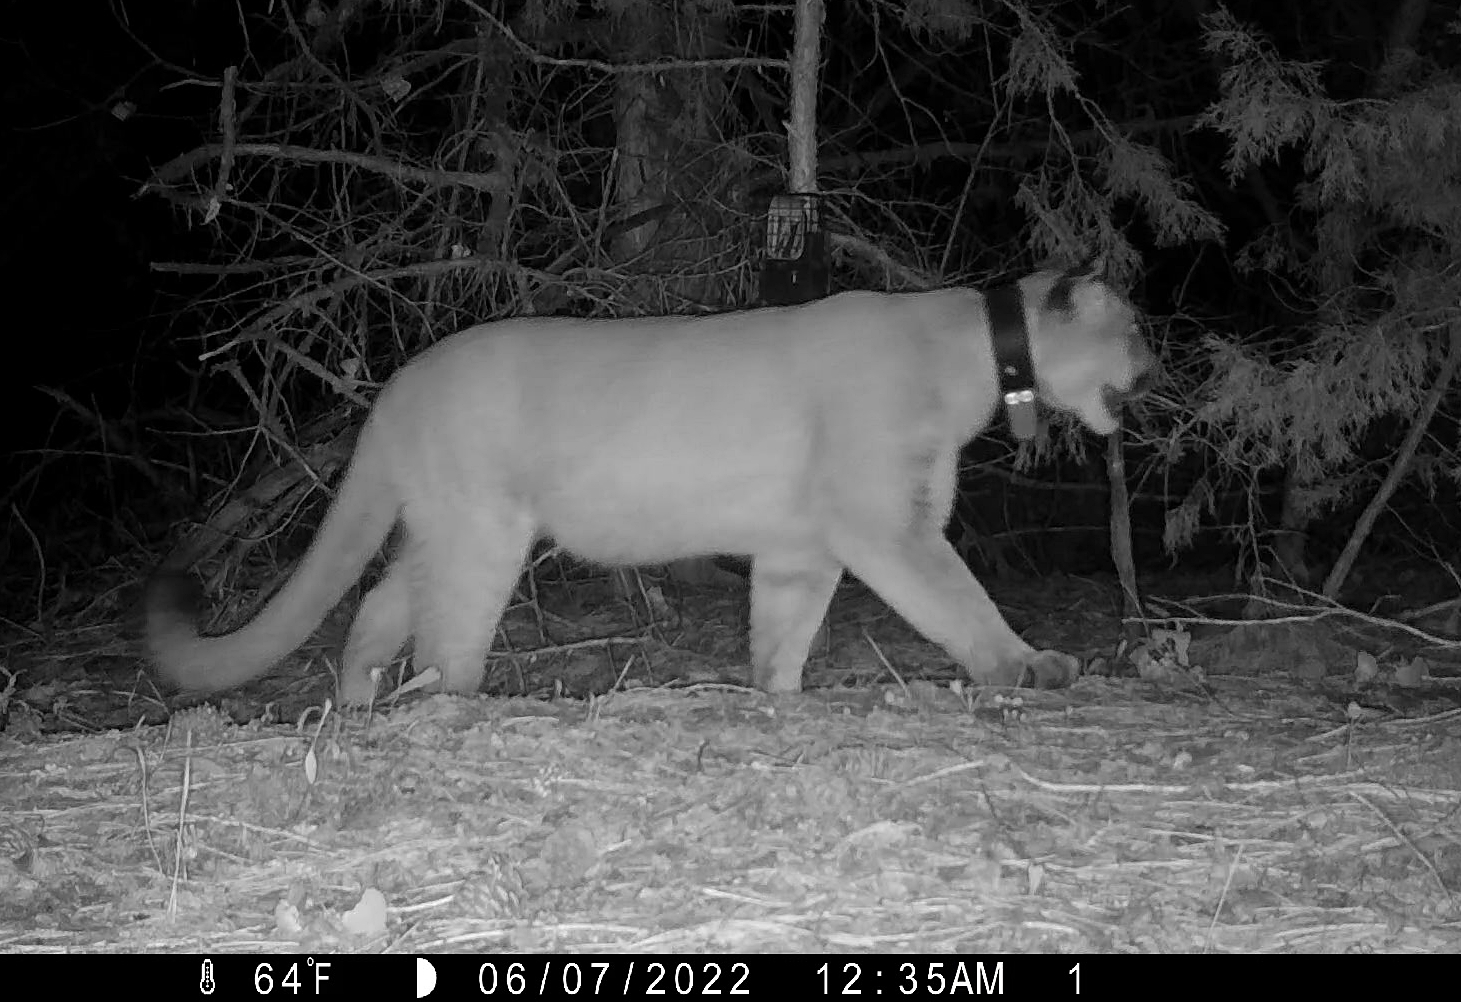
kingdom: Animalia
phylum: Chordata
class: Mammalia
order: Carnivora
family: Felidae
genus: Puma
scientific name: Puma concolor
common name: Puma
